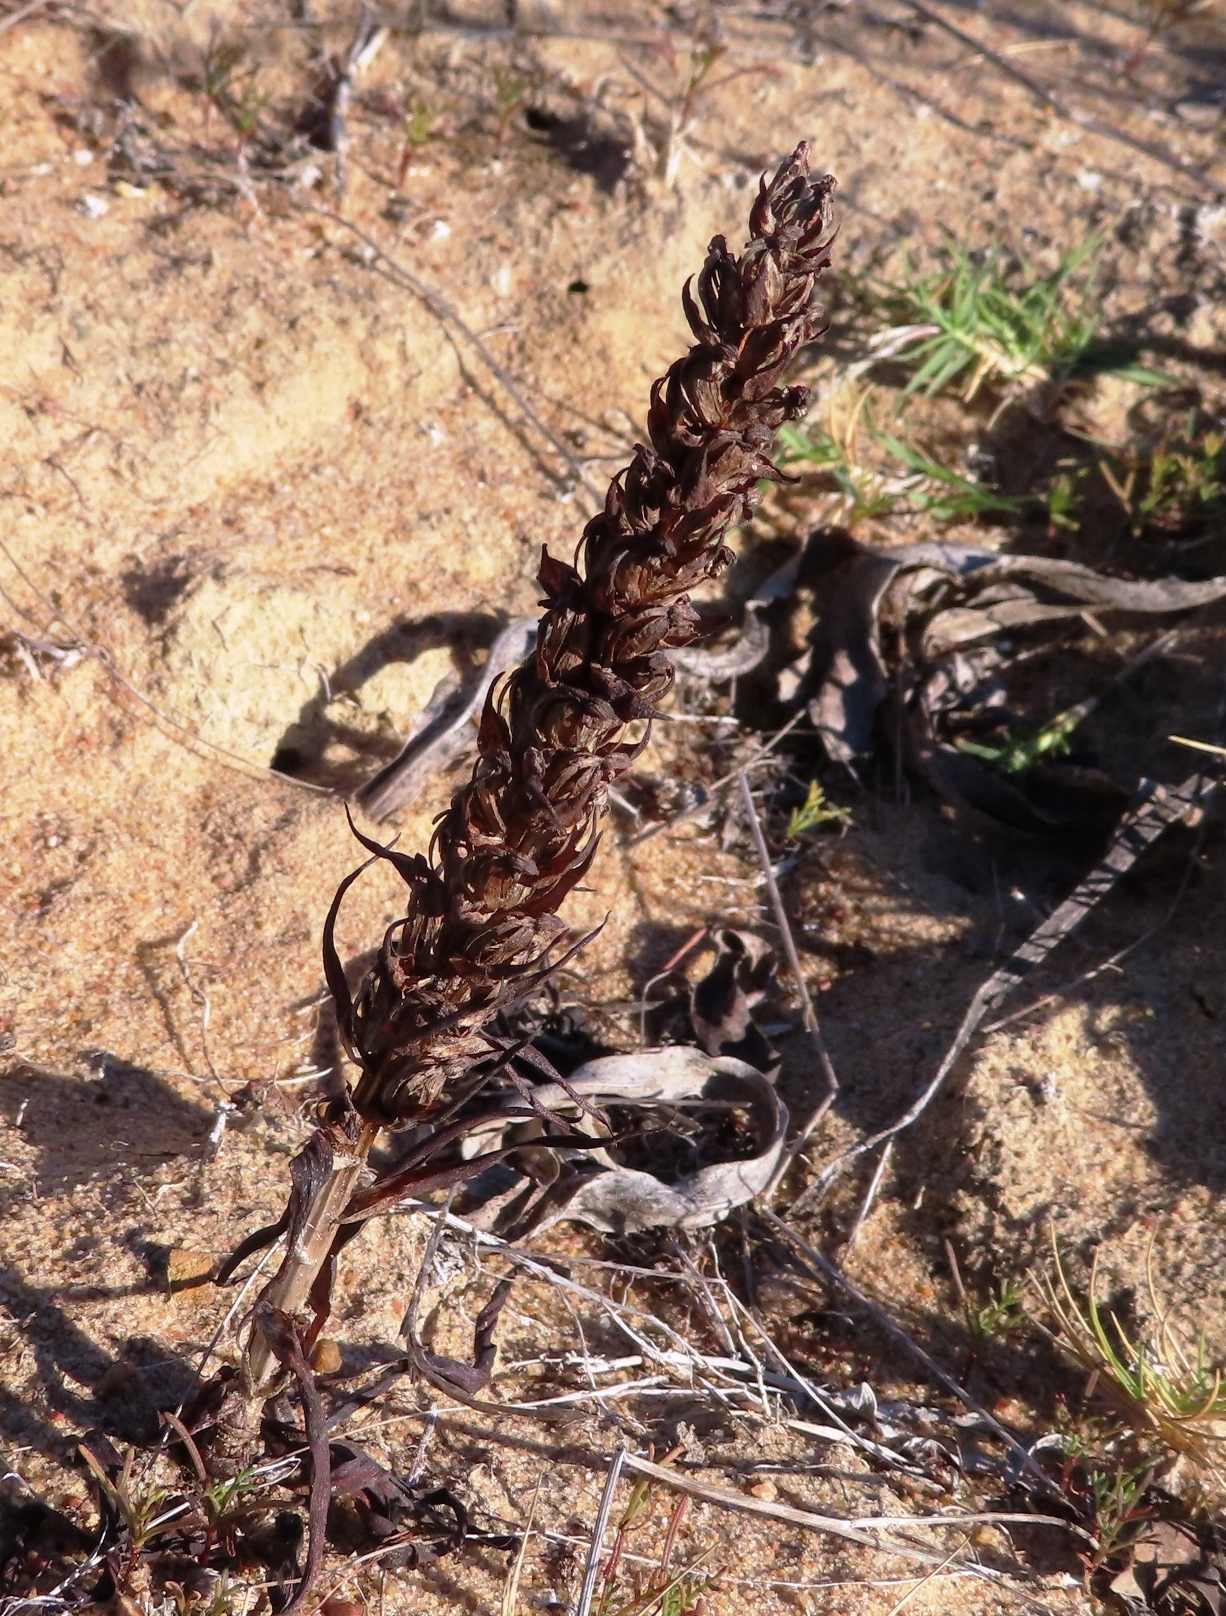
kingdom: Plantae
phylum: Tracheophyta
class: Liliopsida
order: Asparagales
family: Orchidaceae
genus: Disa
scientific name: Disa bracteata
